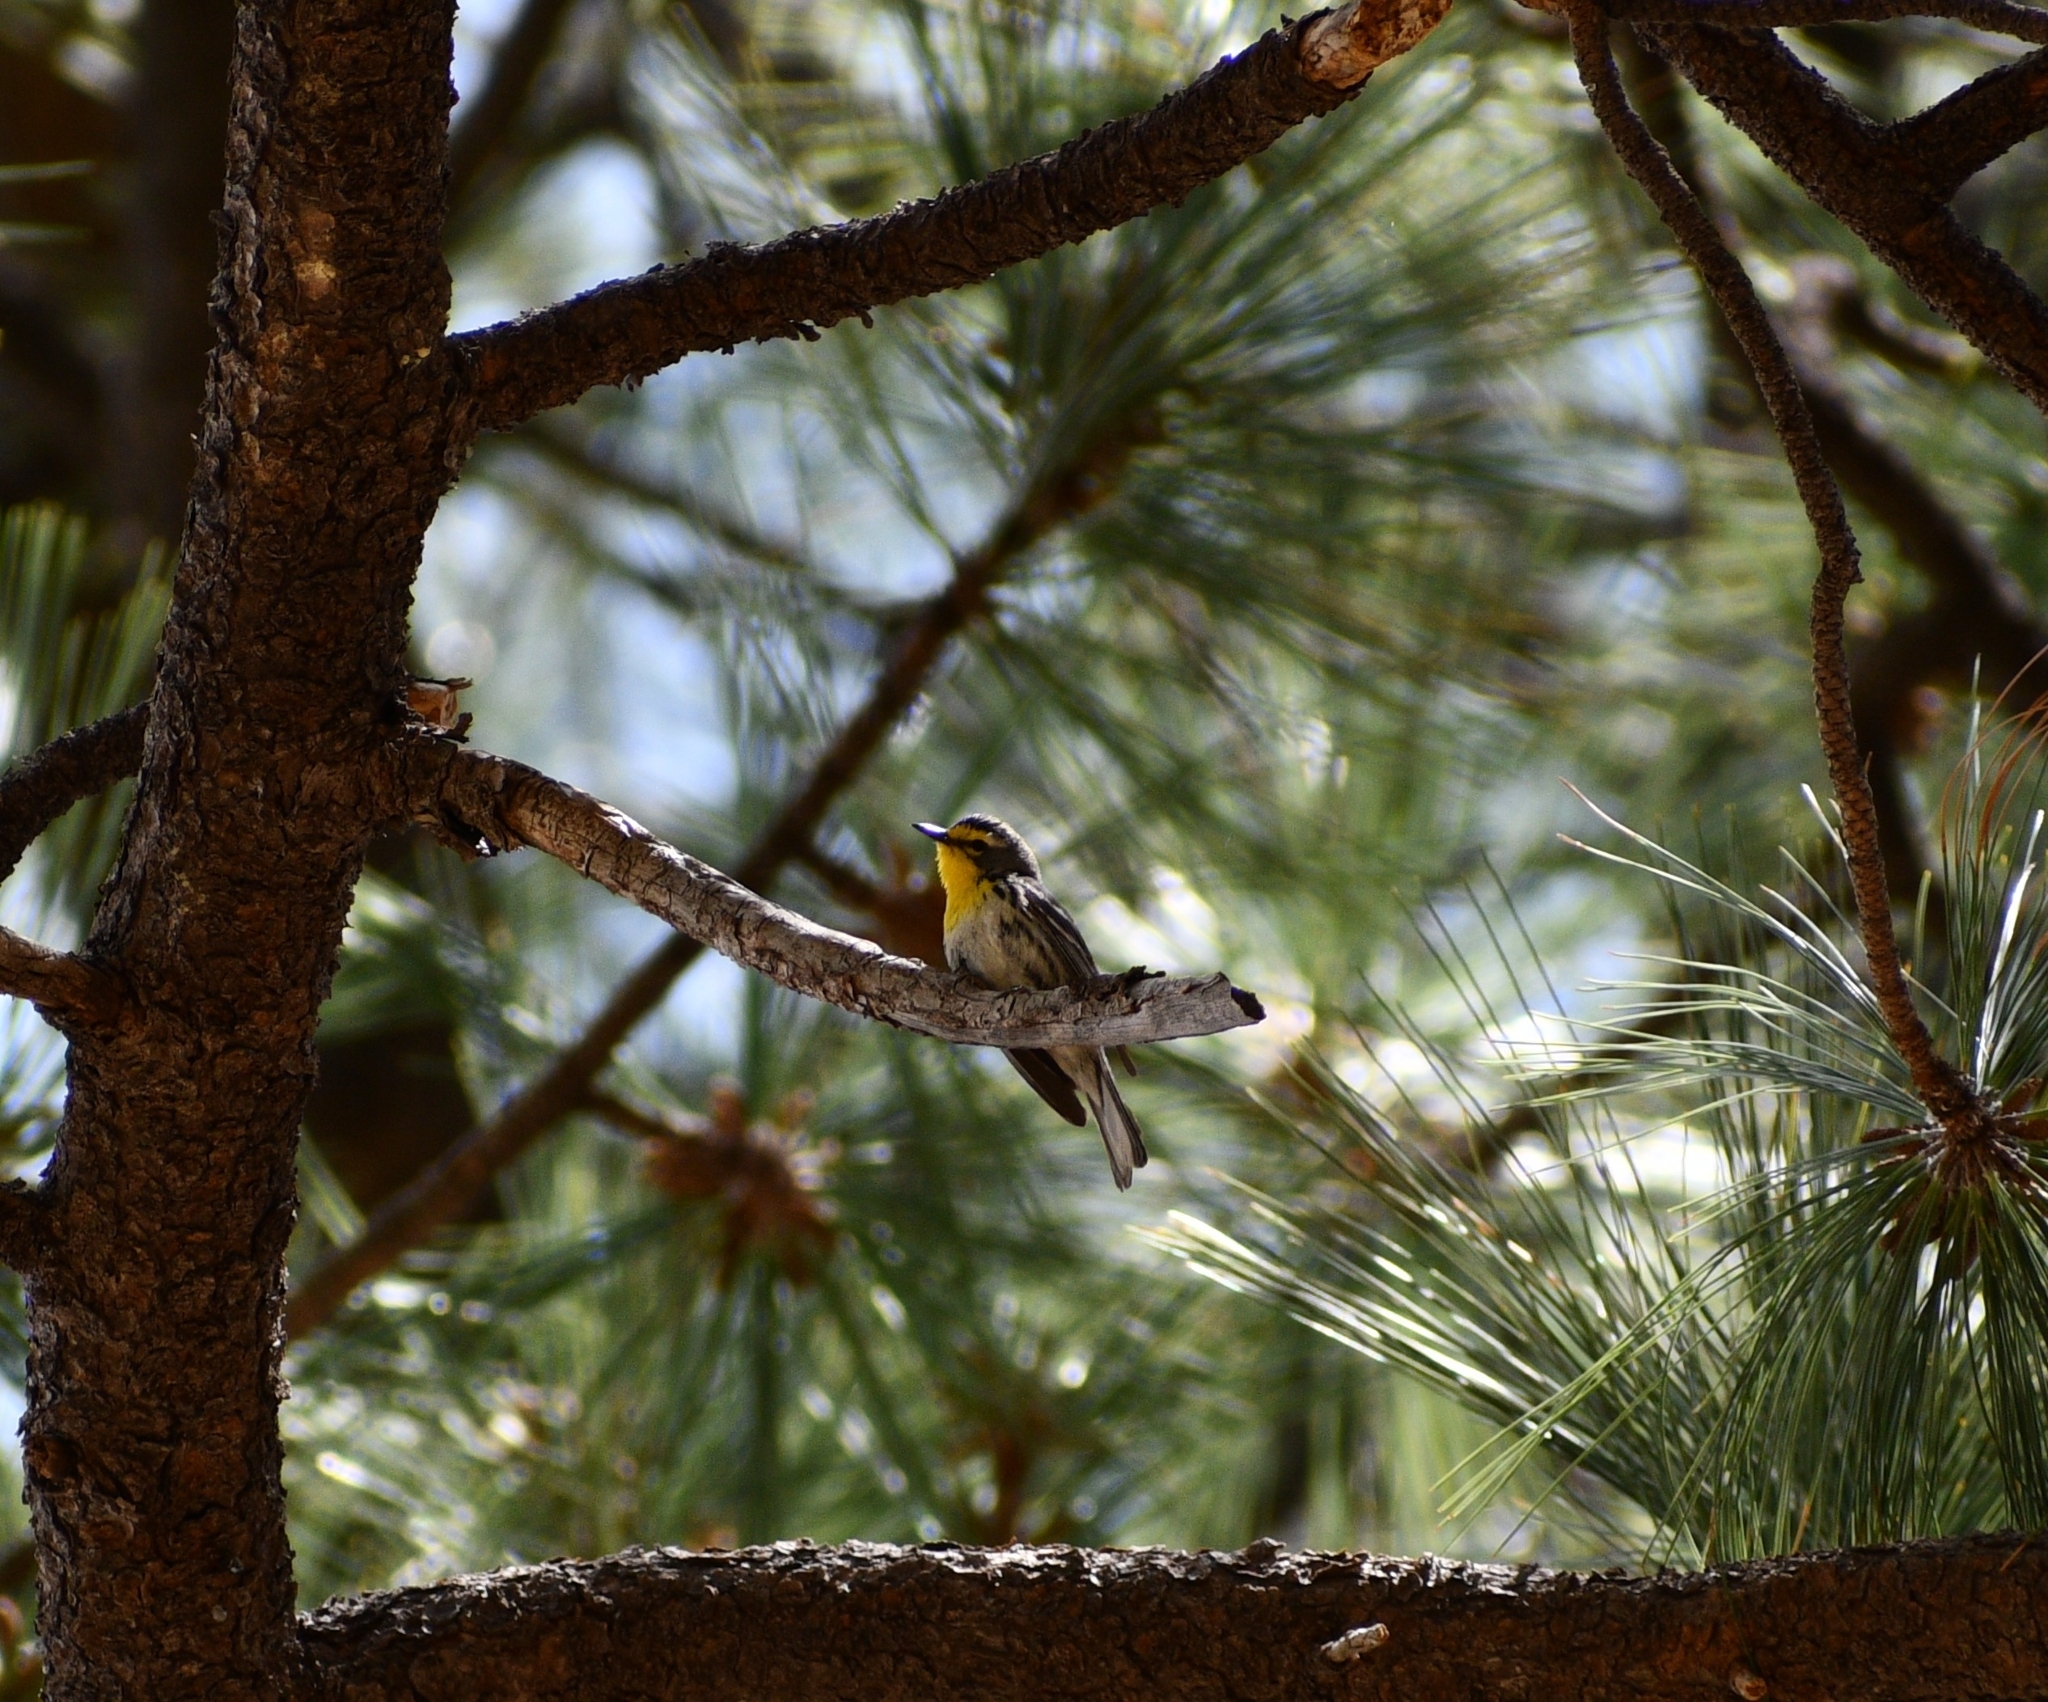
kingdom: Animalia
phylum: Chordata
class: Aves
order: Passeriformes
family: Parulidae
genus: Setophaga
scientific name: Setophaga graciae
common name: Grace's warbler
